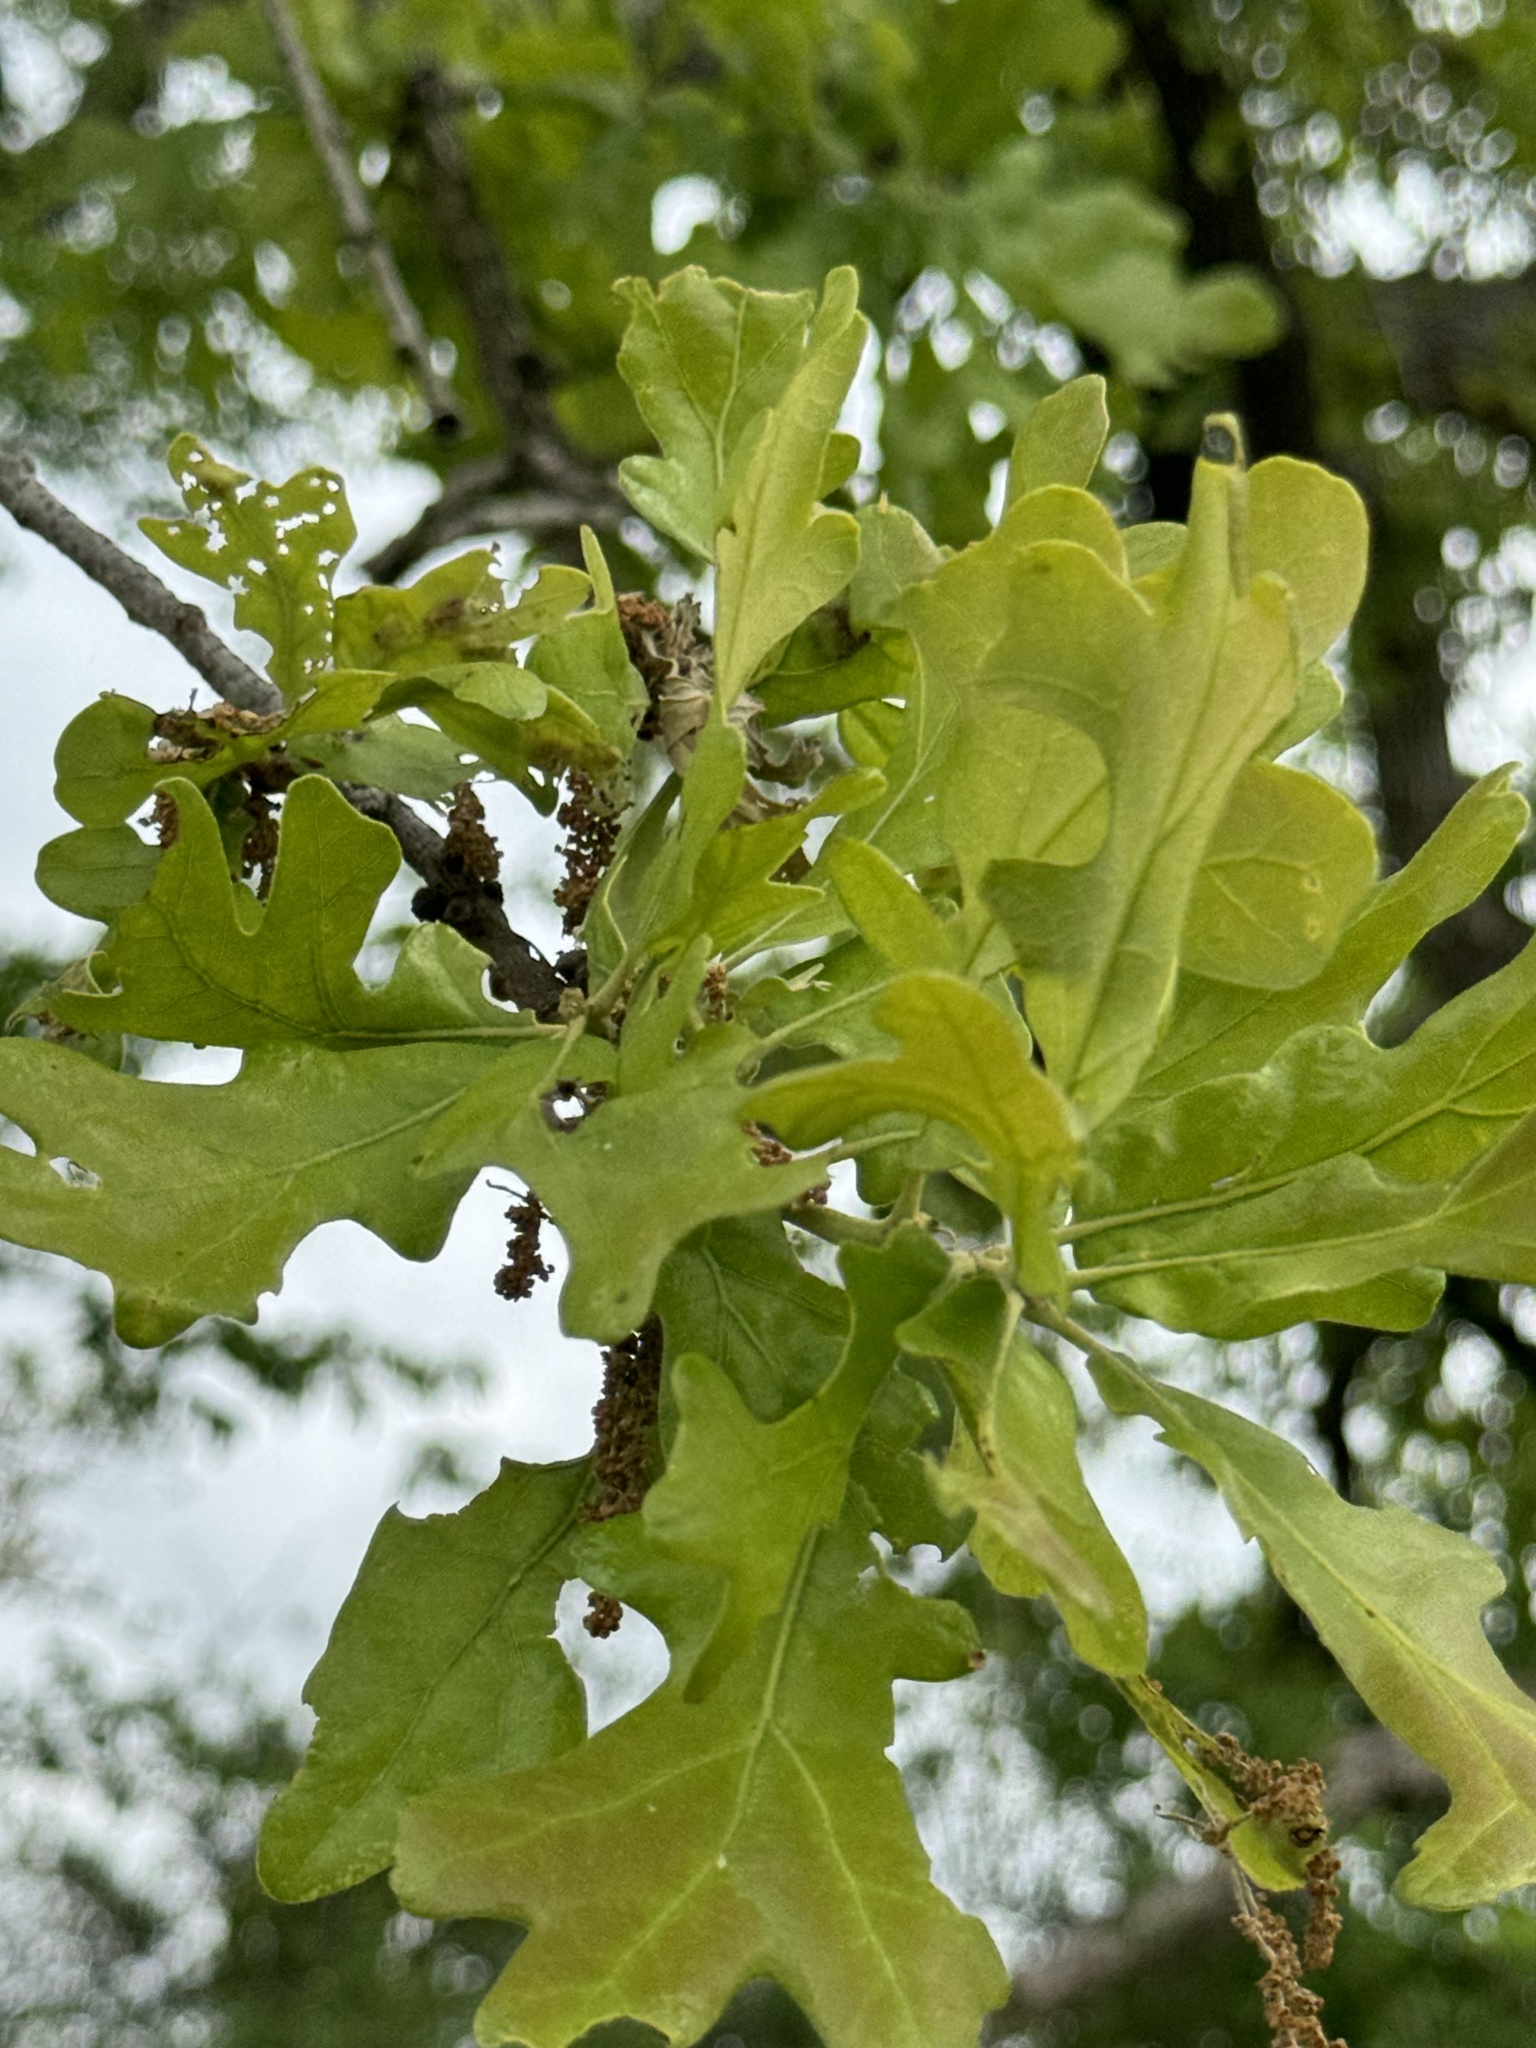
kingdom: Plantae
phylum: Tracheophyta
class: Magnoliopsida
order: Fagales
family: Fagaceae
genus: Quercus
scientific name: Quercus stellata
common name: Post oak
